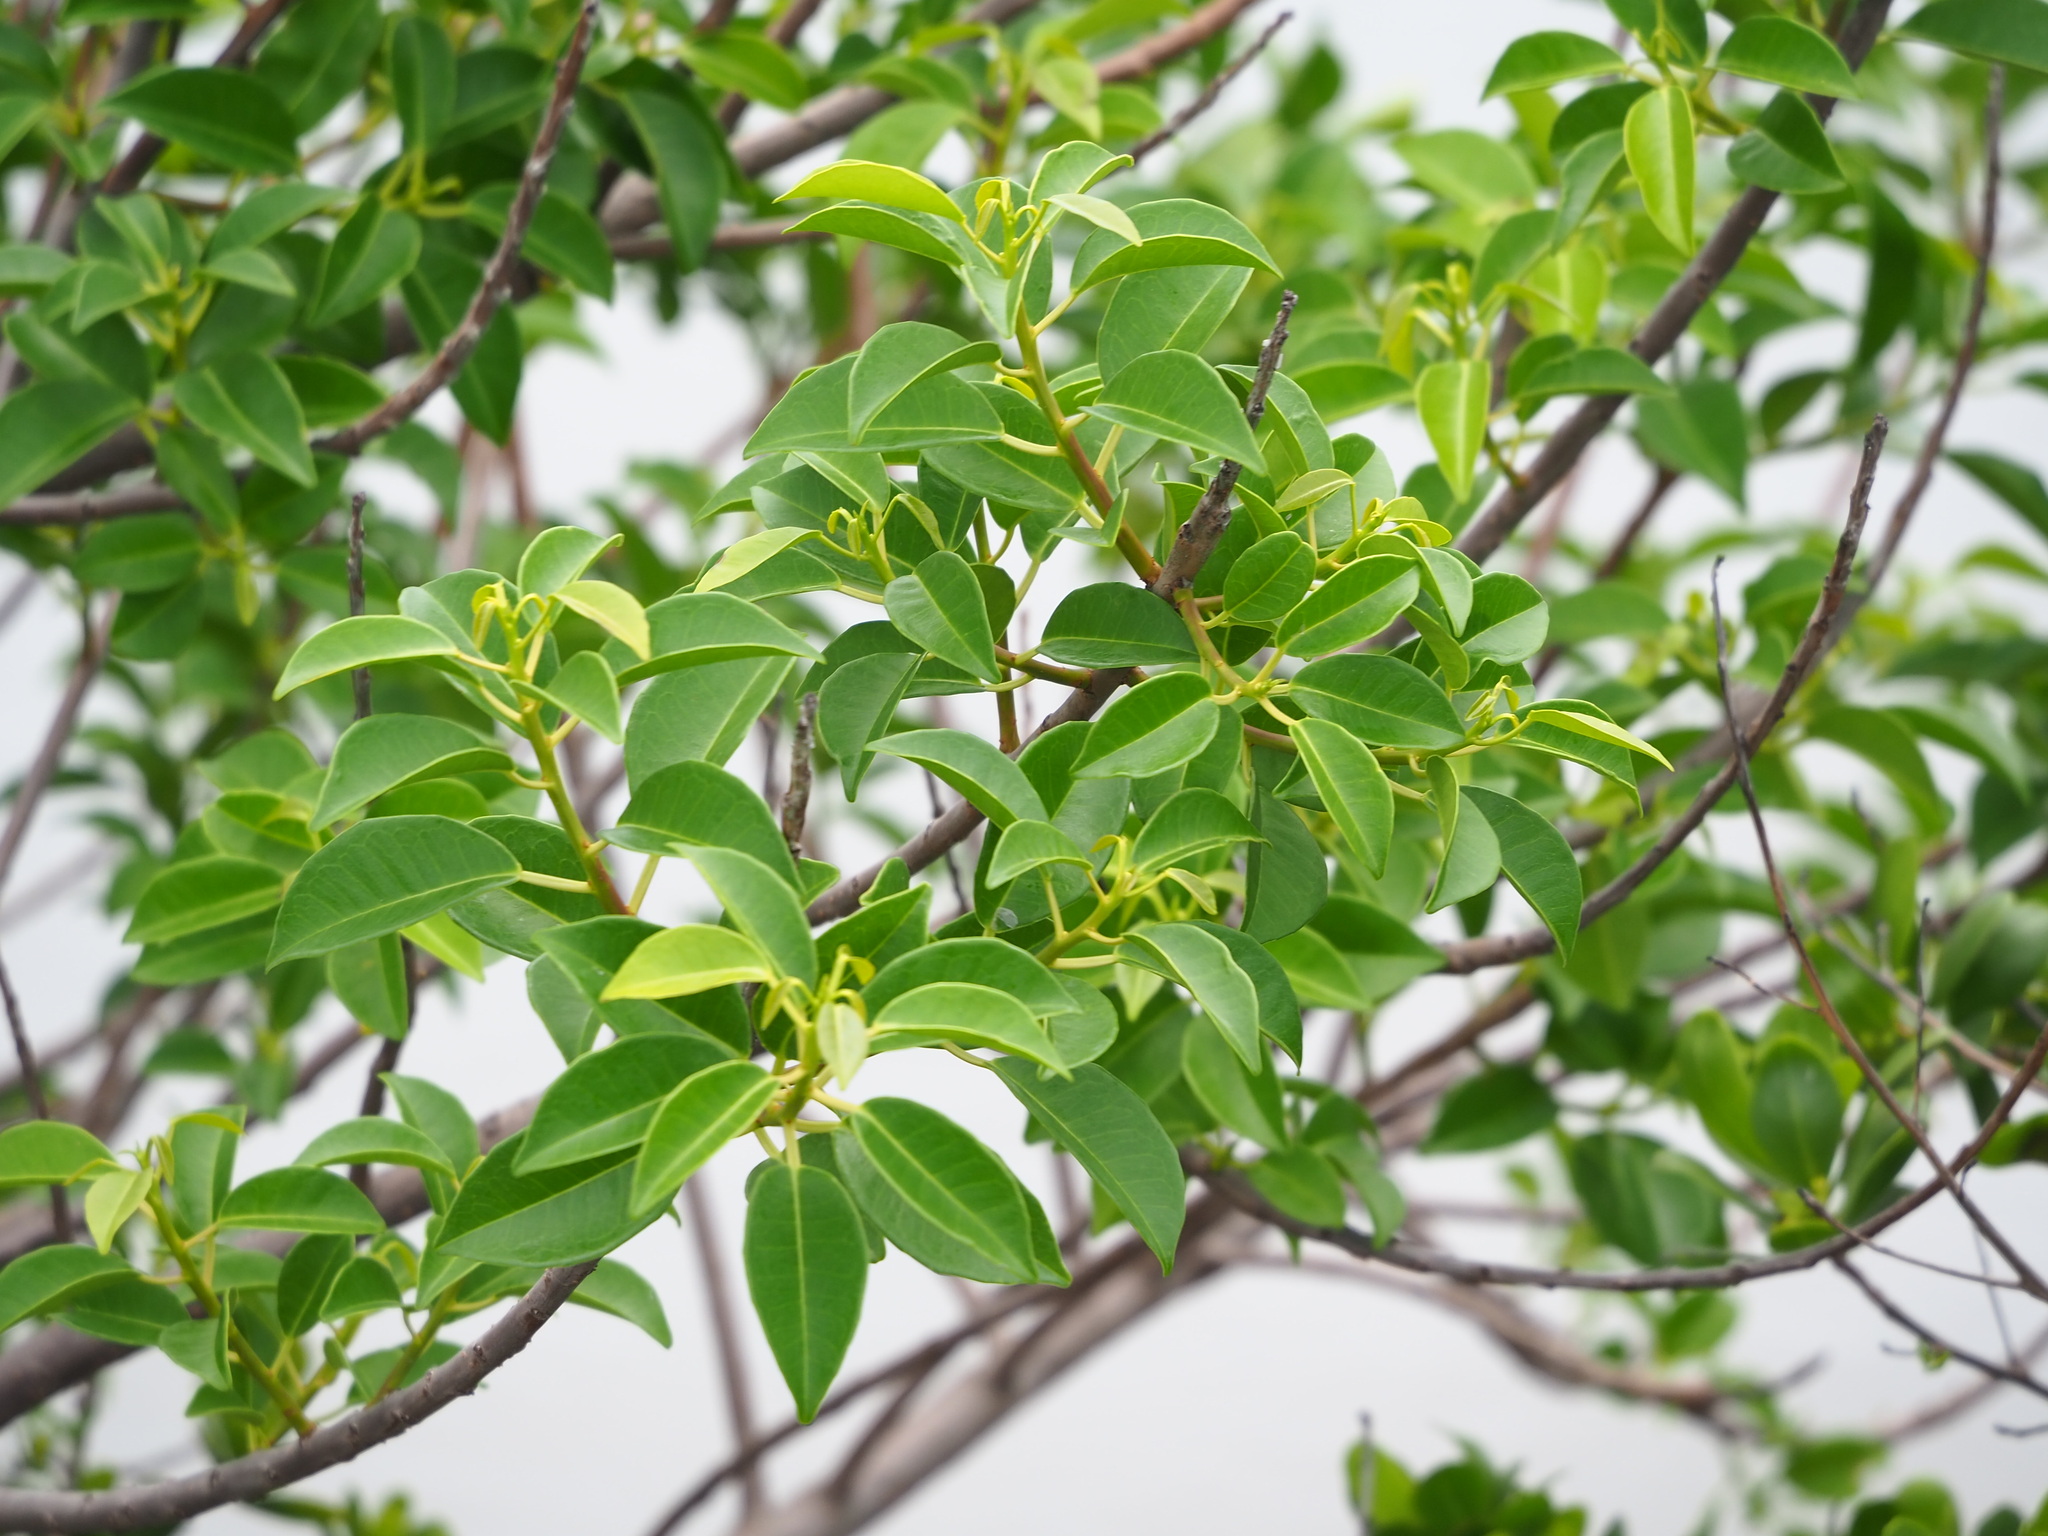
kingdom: Plantae
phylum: Tracheophyta
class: Magnoliopsida
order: Malpighiales
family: Euphorbiaceae
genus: Excoecaria
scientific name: Excoecaria agallocha
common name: River poisontree
